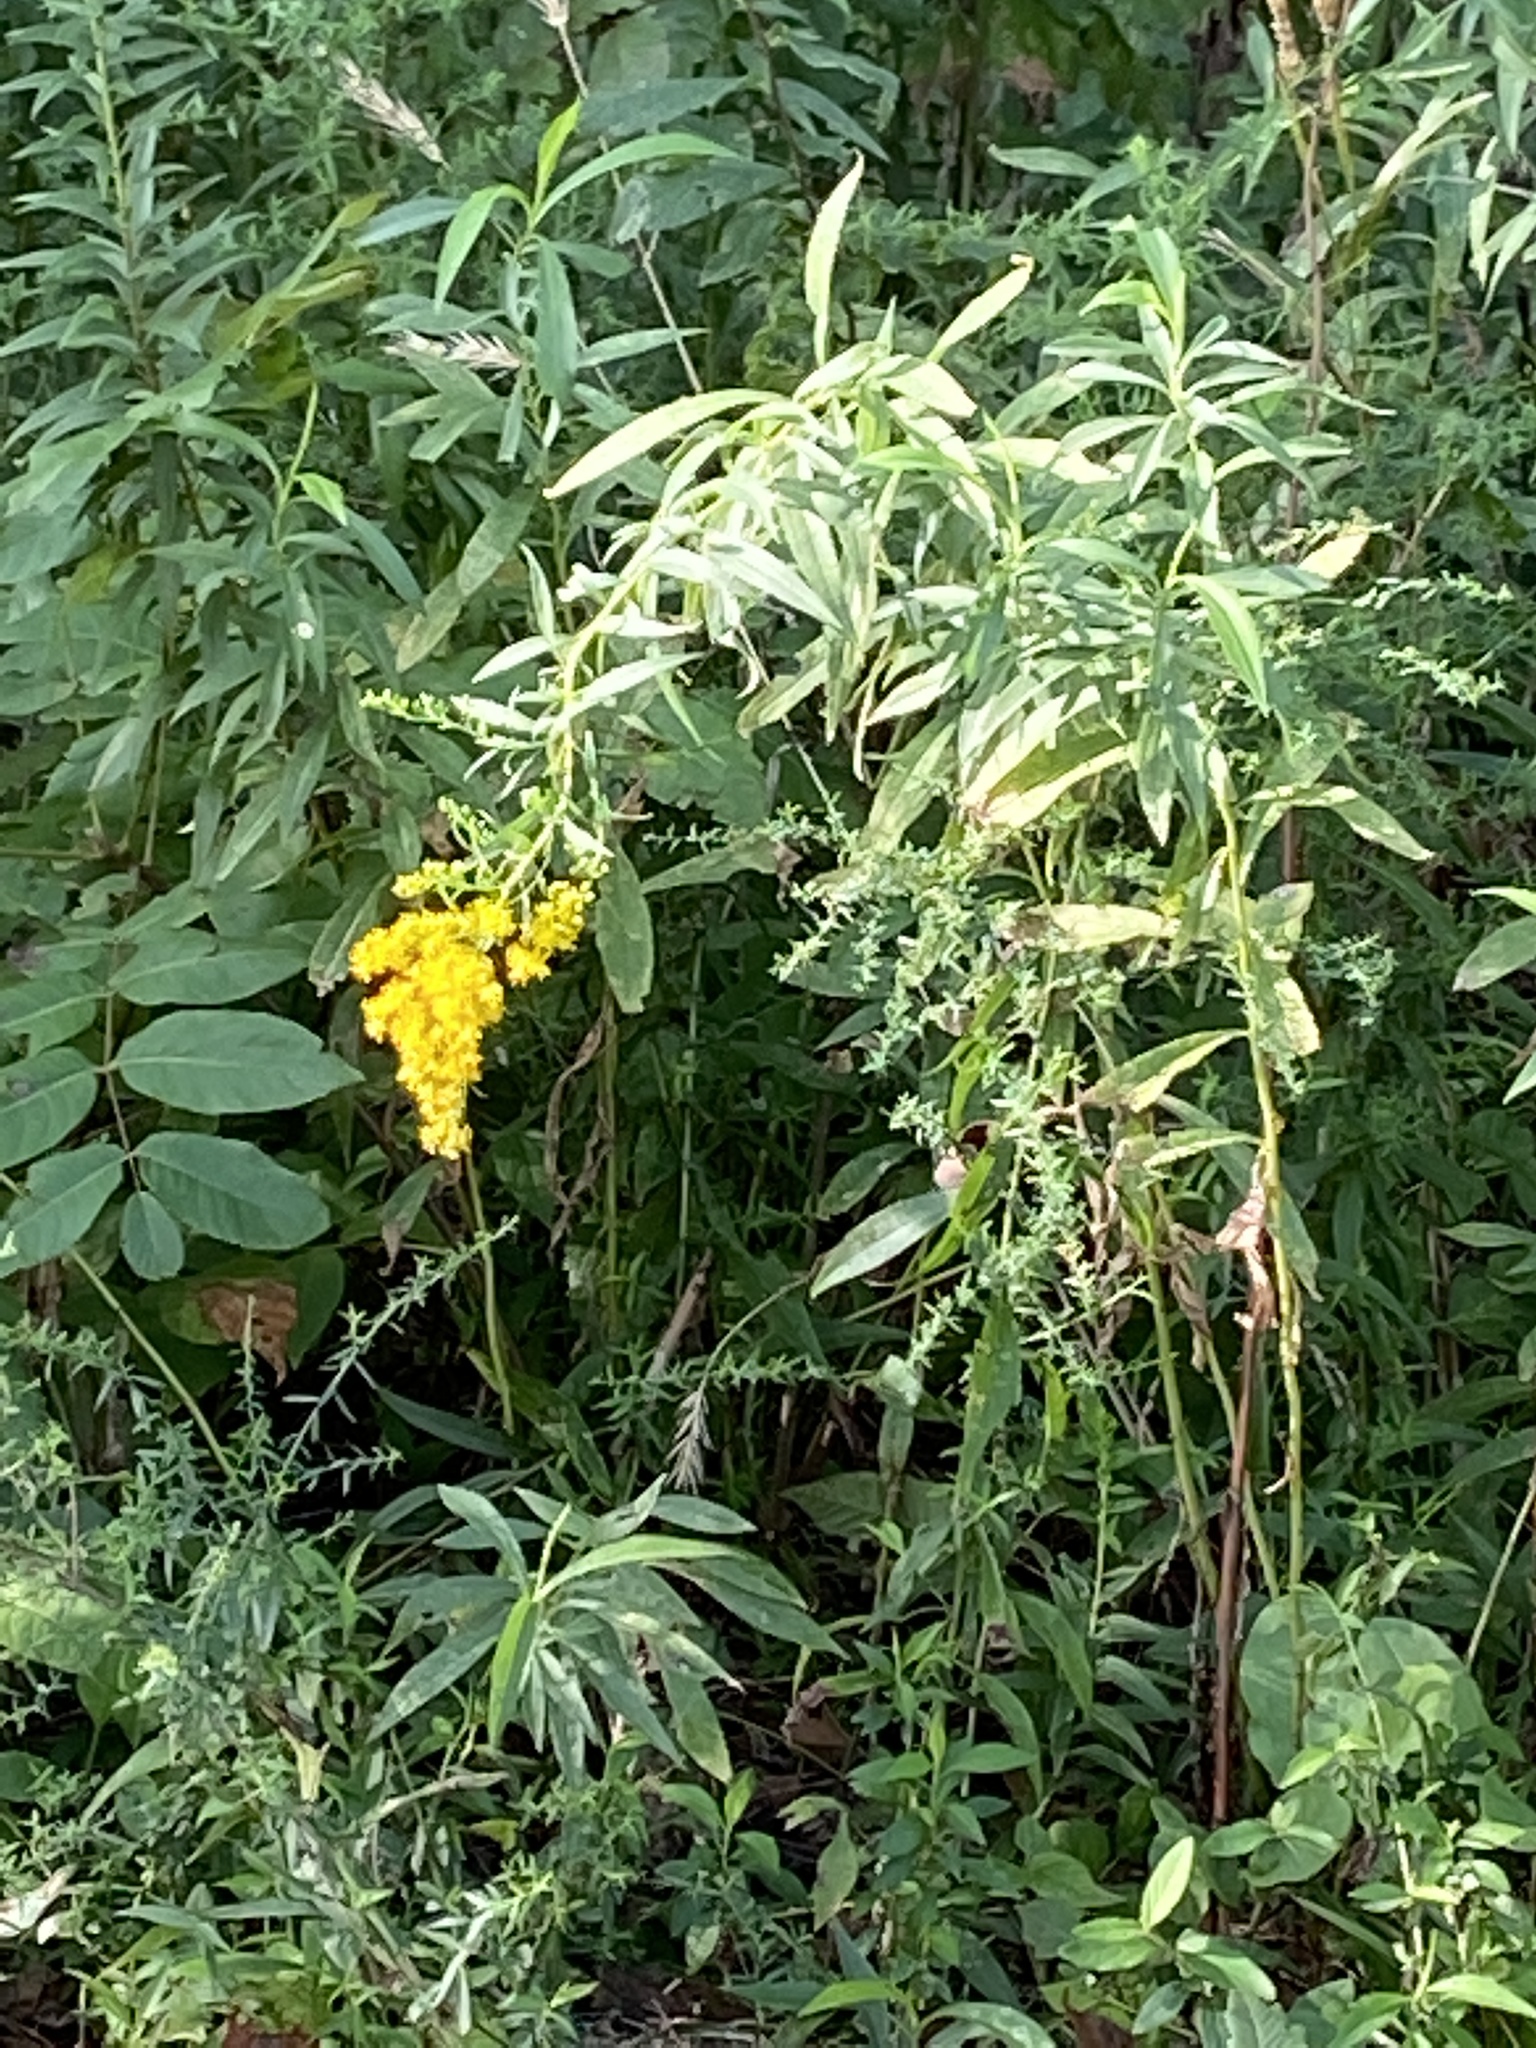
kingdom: Plantae
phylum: Tracheophyta
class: Magnoliopsida
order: Asterales
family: Asteraceae
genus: Solidago
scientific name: Solidago altissima
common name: Late goldenrod
